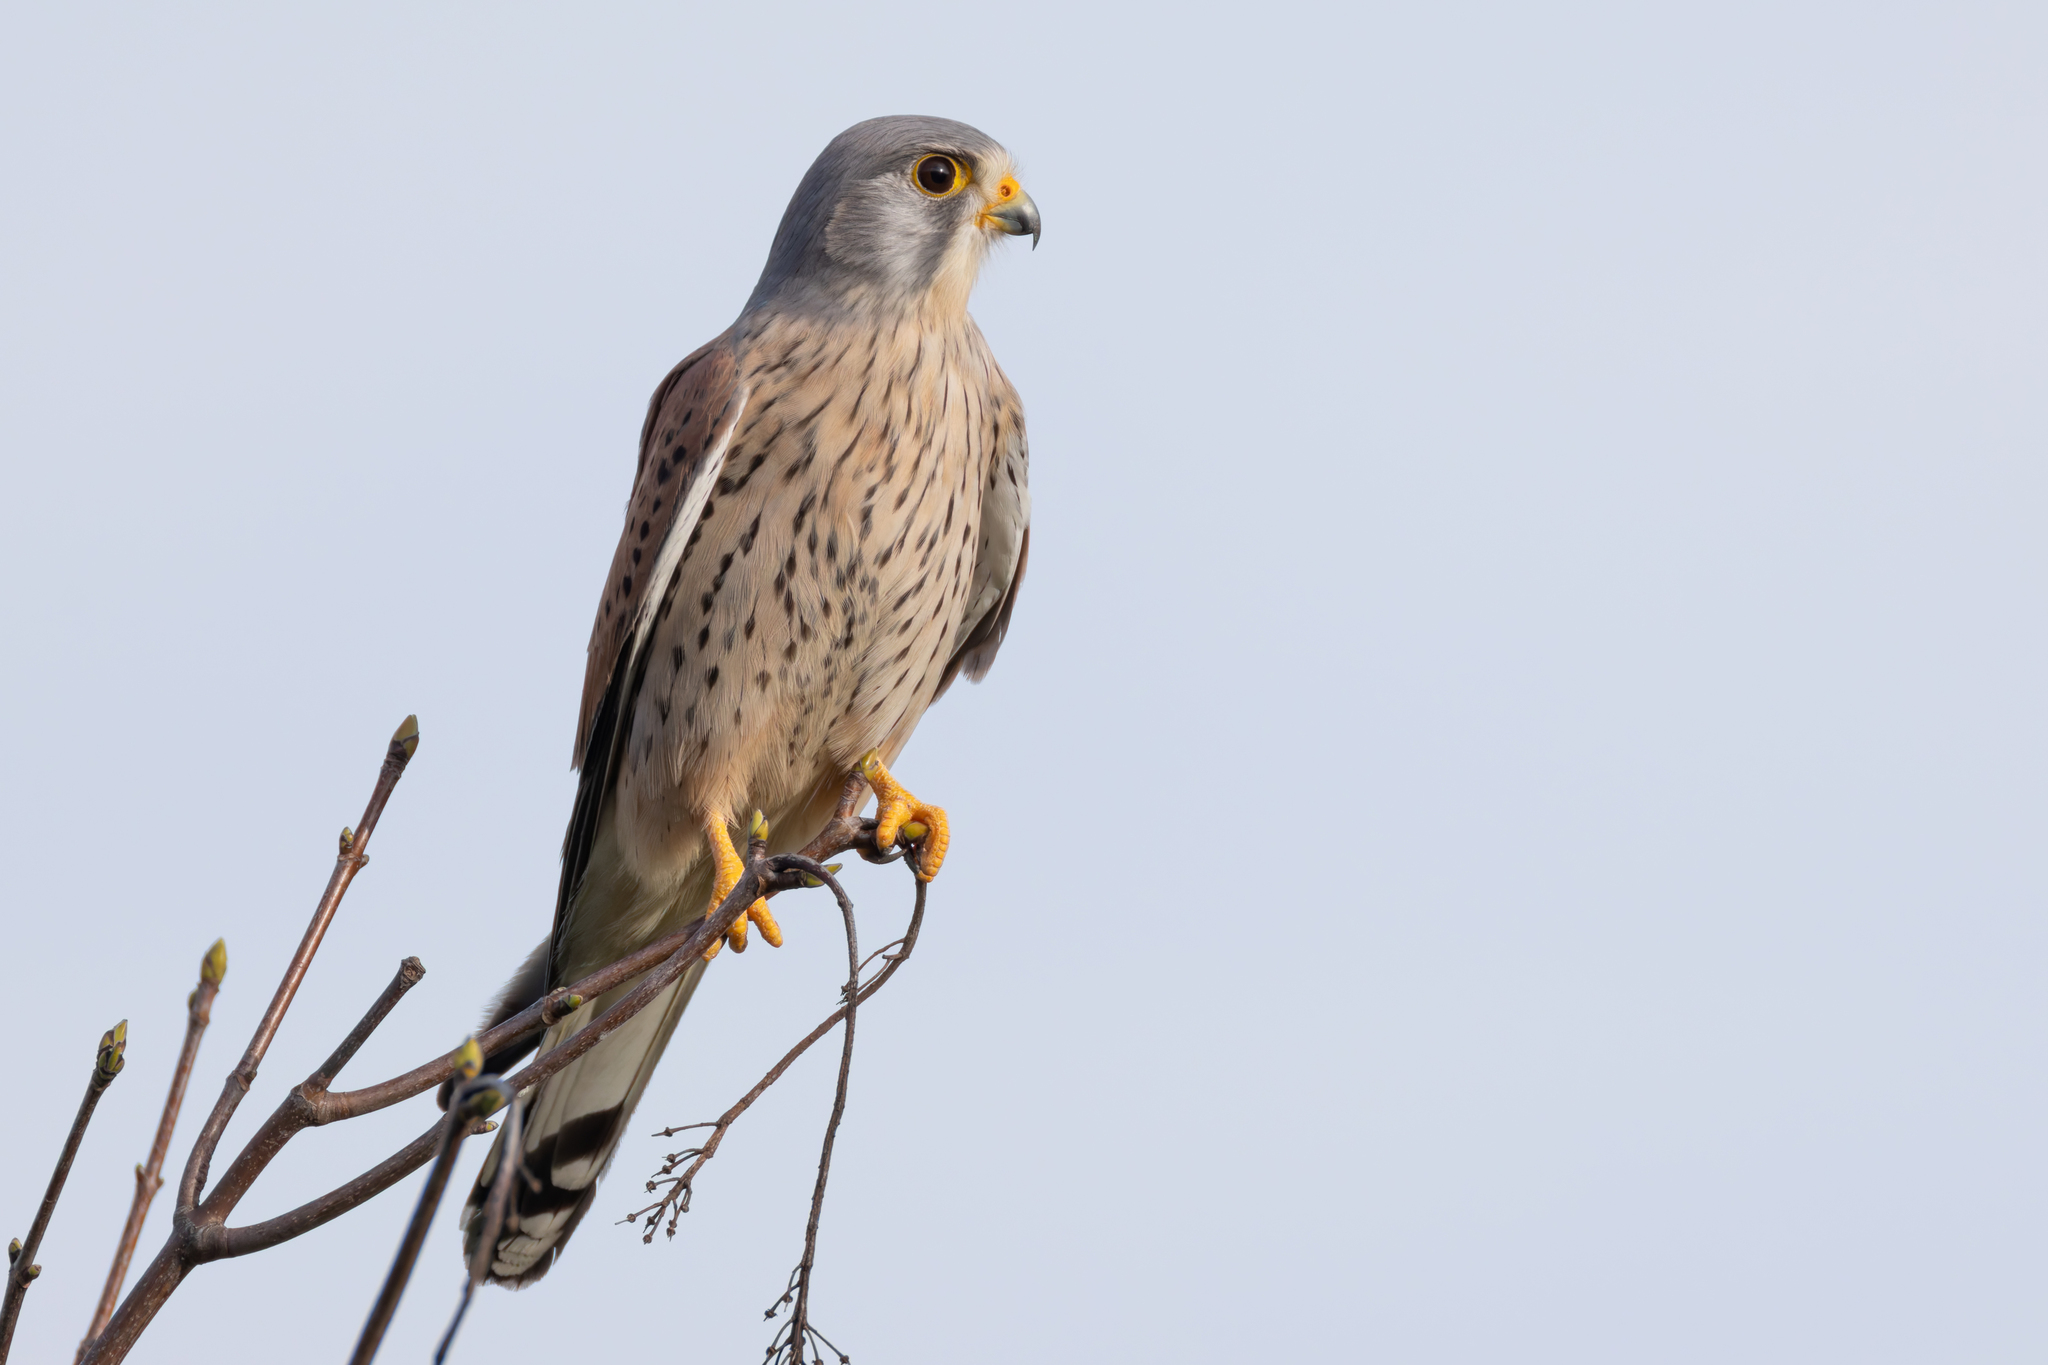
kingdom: Animalia
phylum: Chordata
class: Aves
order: Falconiformes
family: Falconidae
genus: Falco
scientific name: Falco tinnunculus
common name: Common kestrel
